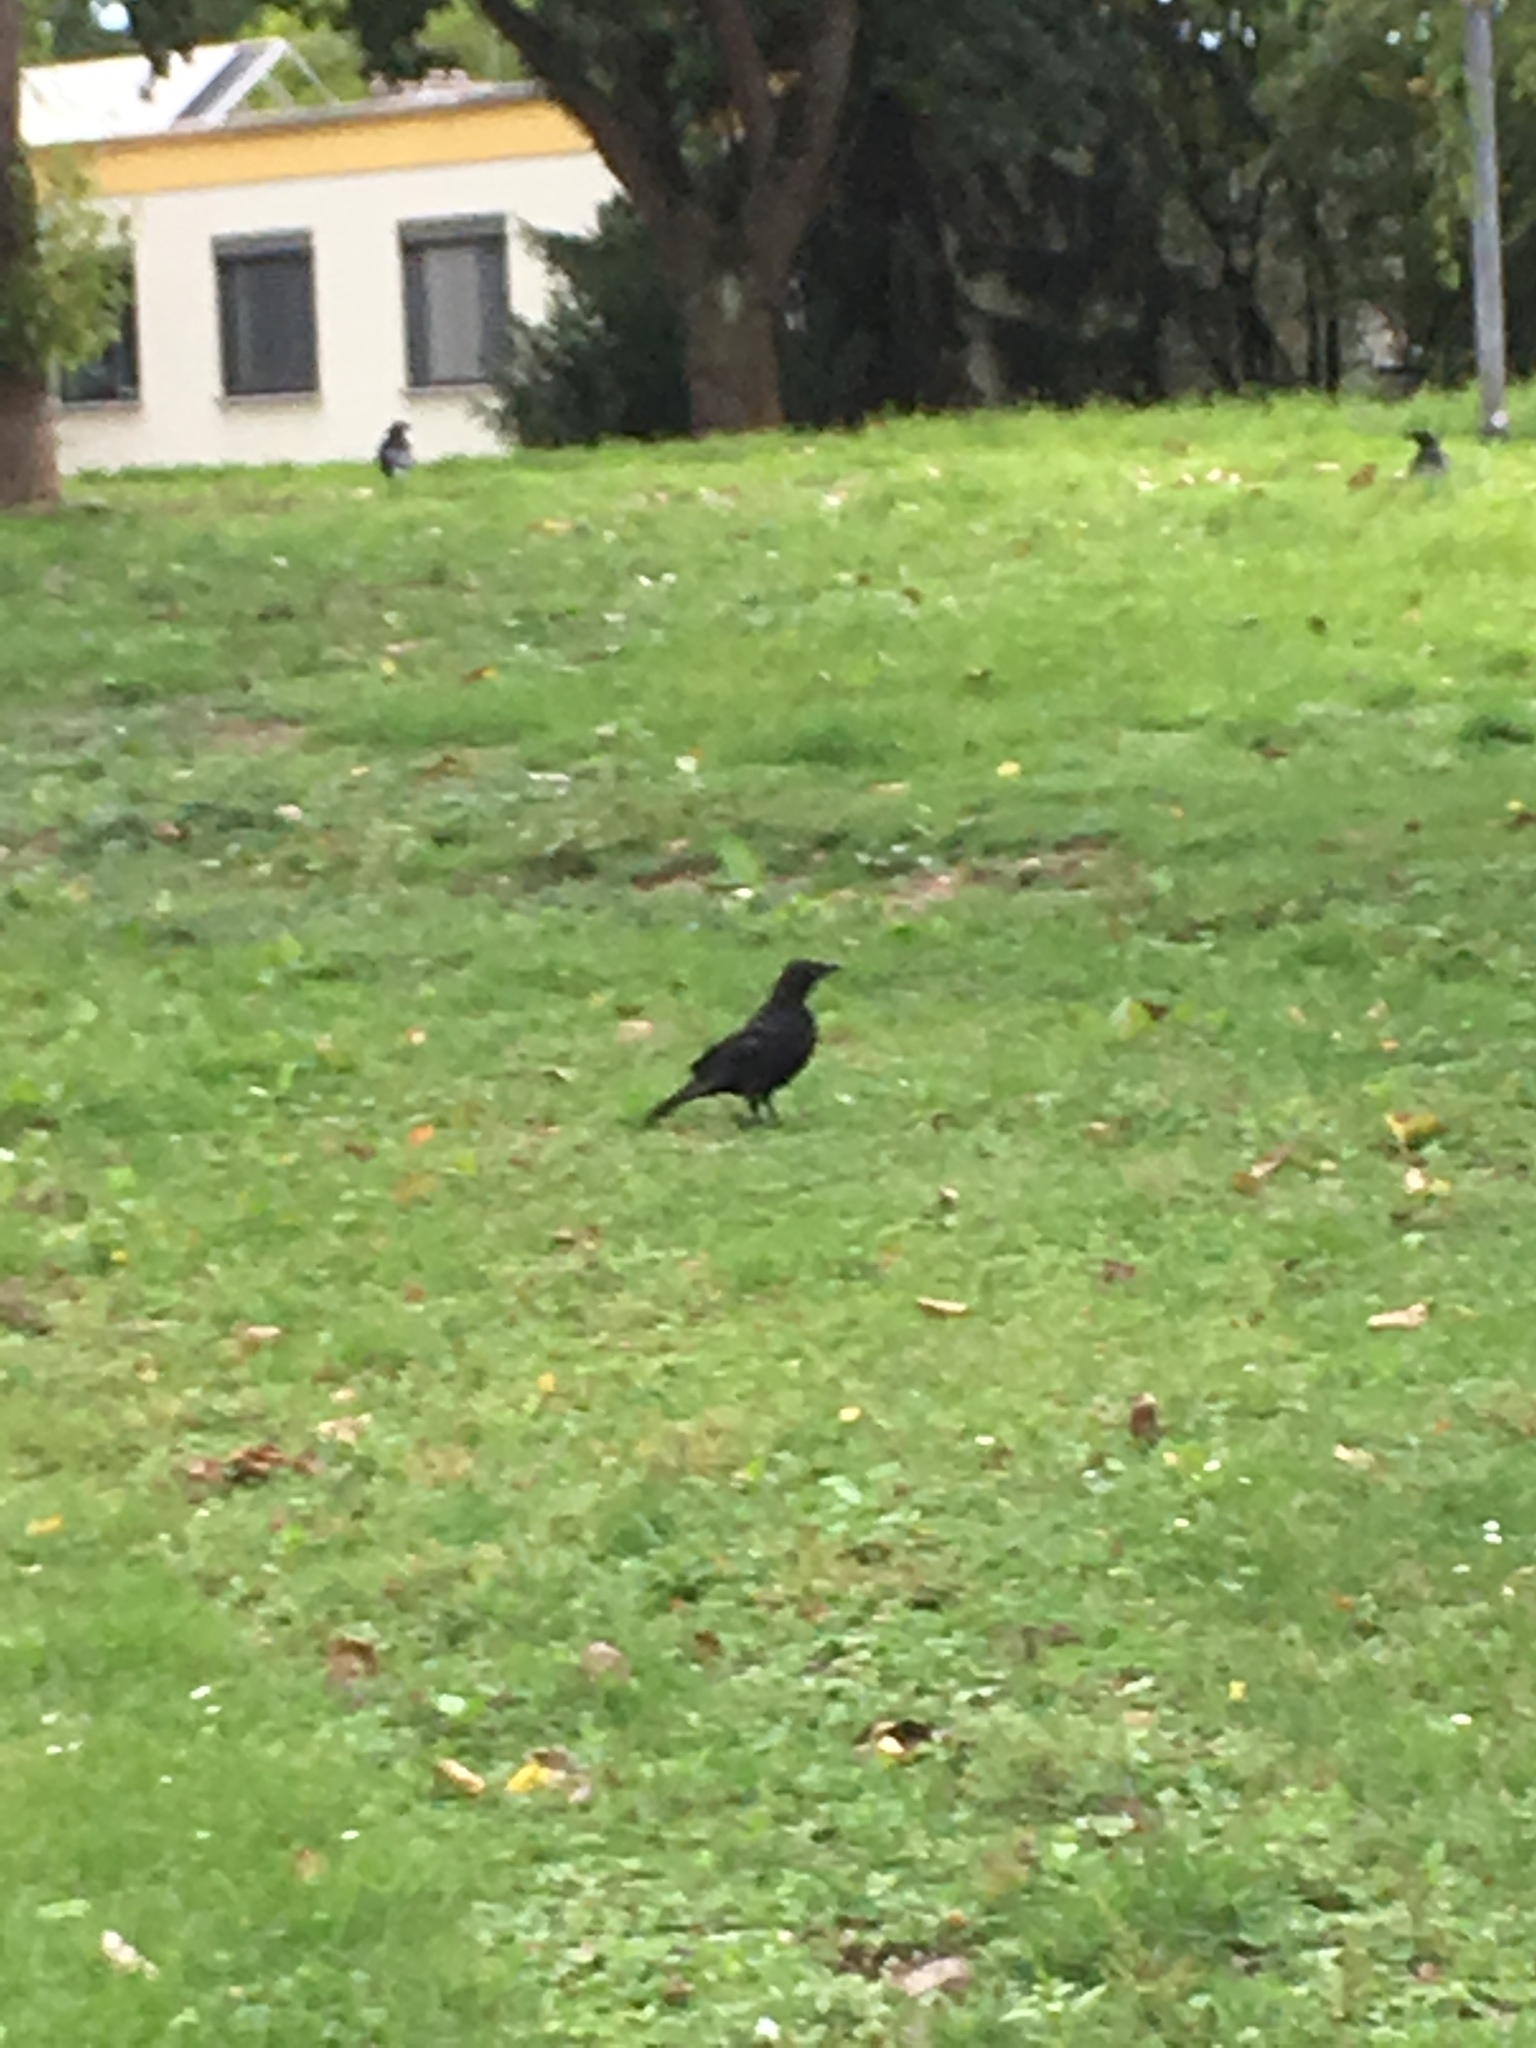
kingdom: Animalia
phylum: Chordata
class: Aves
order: Passeriformes
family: Corvidae
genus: Corvus
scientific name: Corvus corone
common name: Carrion crow
